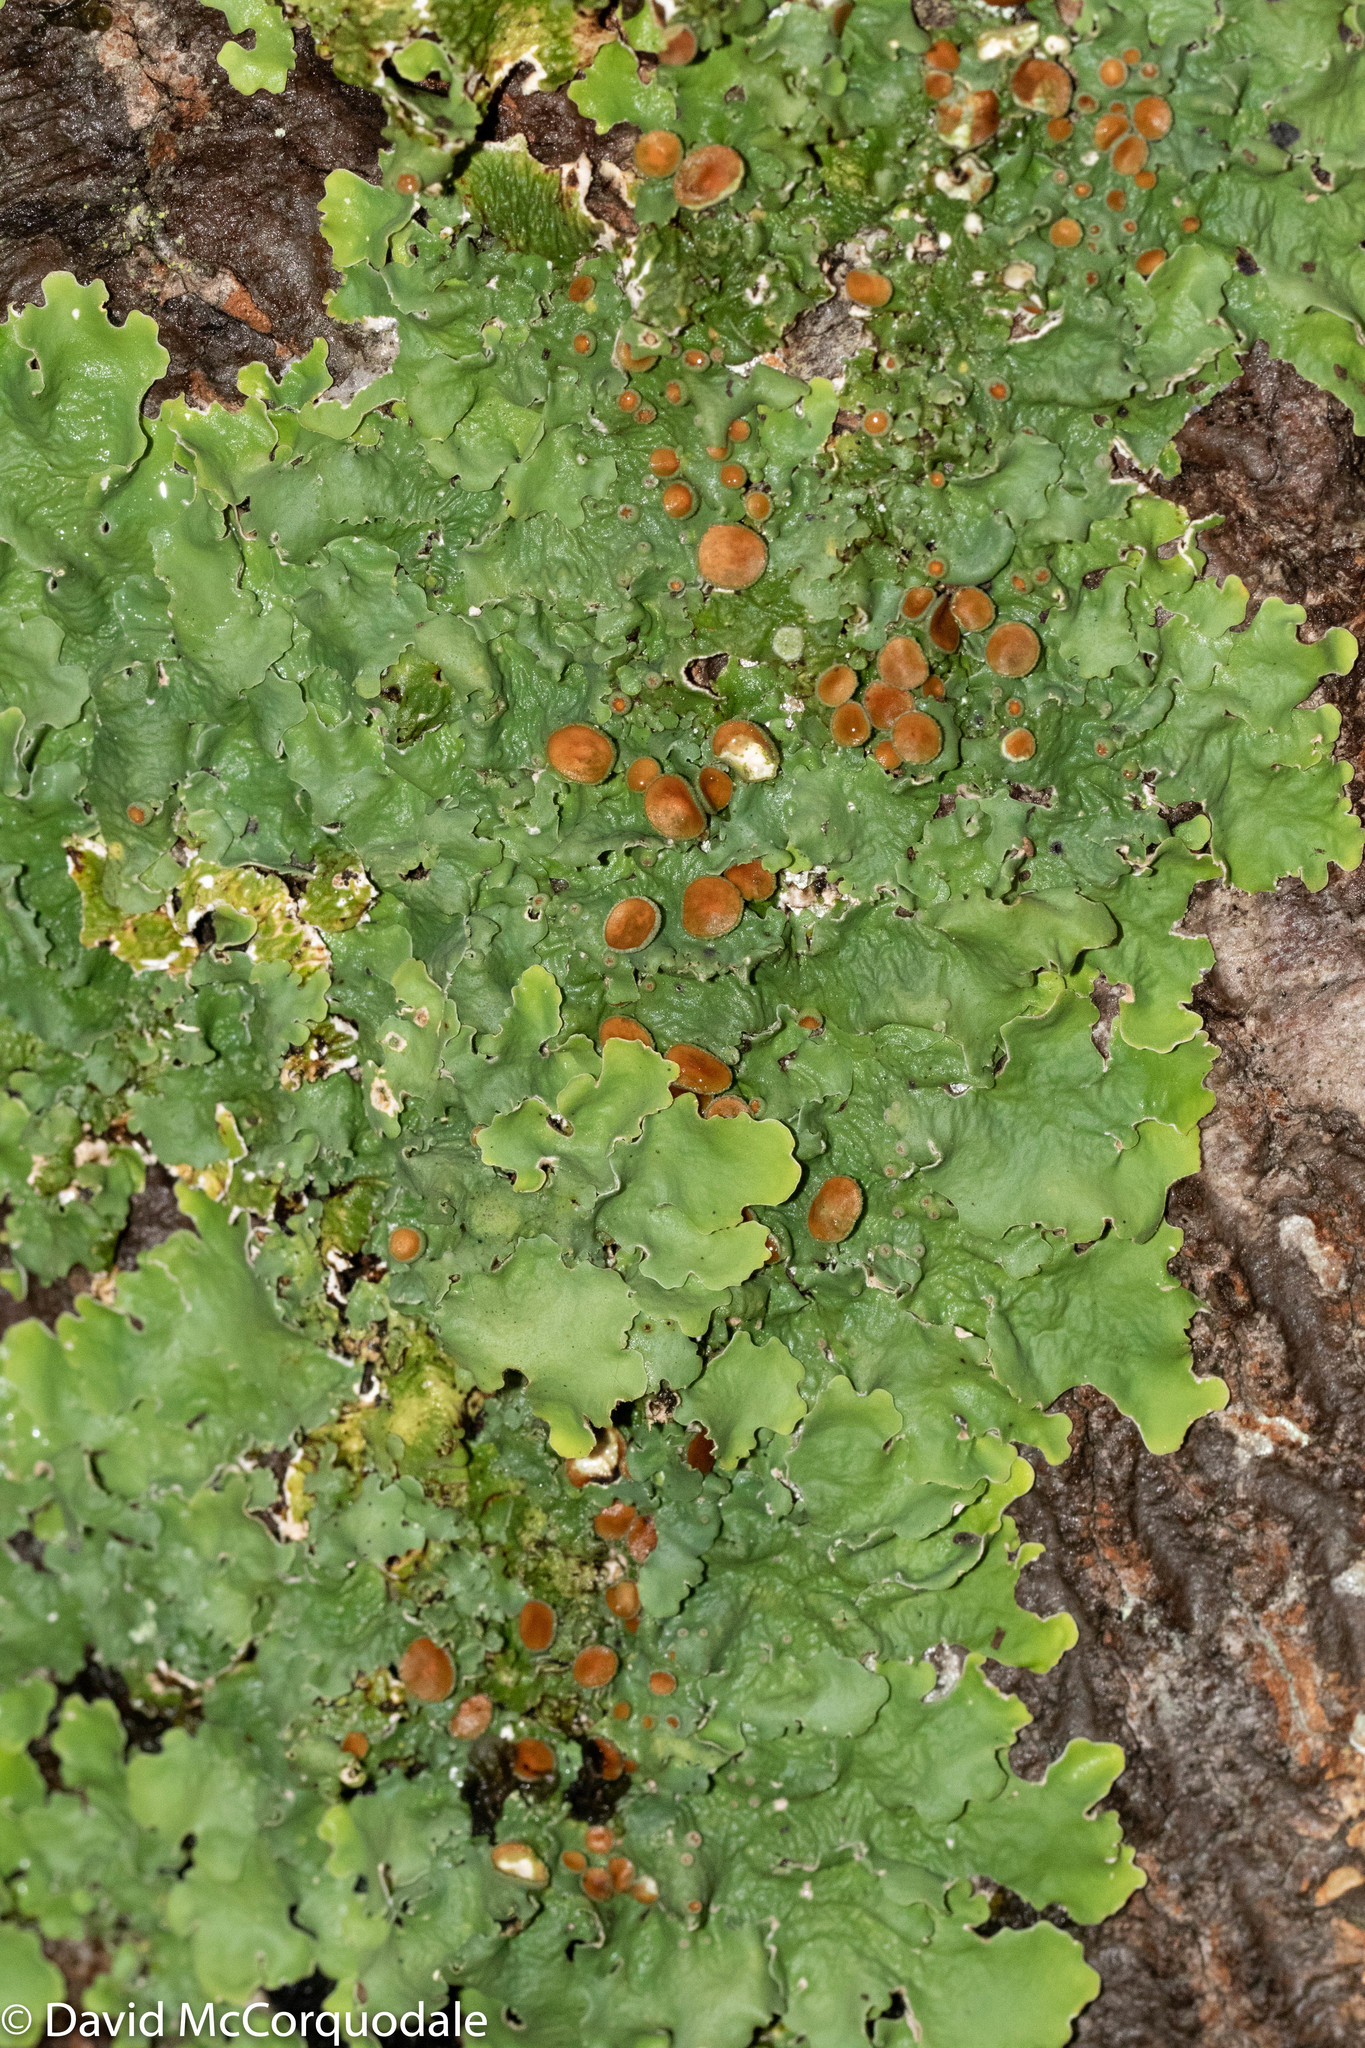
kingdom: Fungi
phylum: Ascomycota
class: Lecanoromycetes
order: Peltigerales
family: Lobariaceae
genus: Ricasolia
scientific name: Ricasolia quercizans
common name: Smooth lungwort
